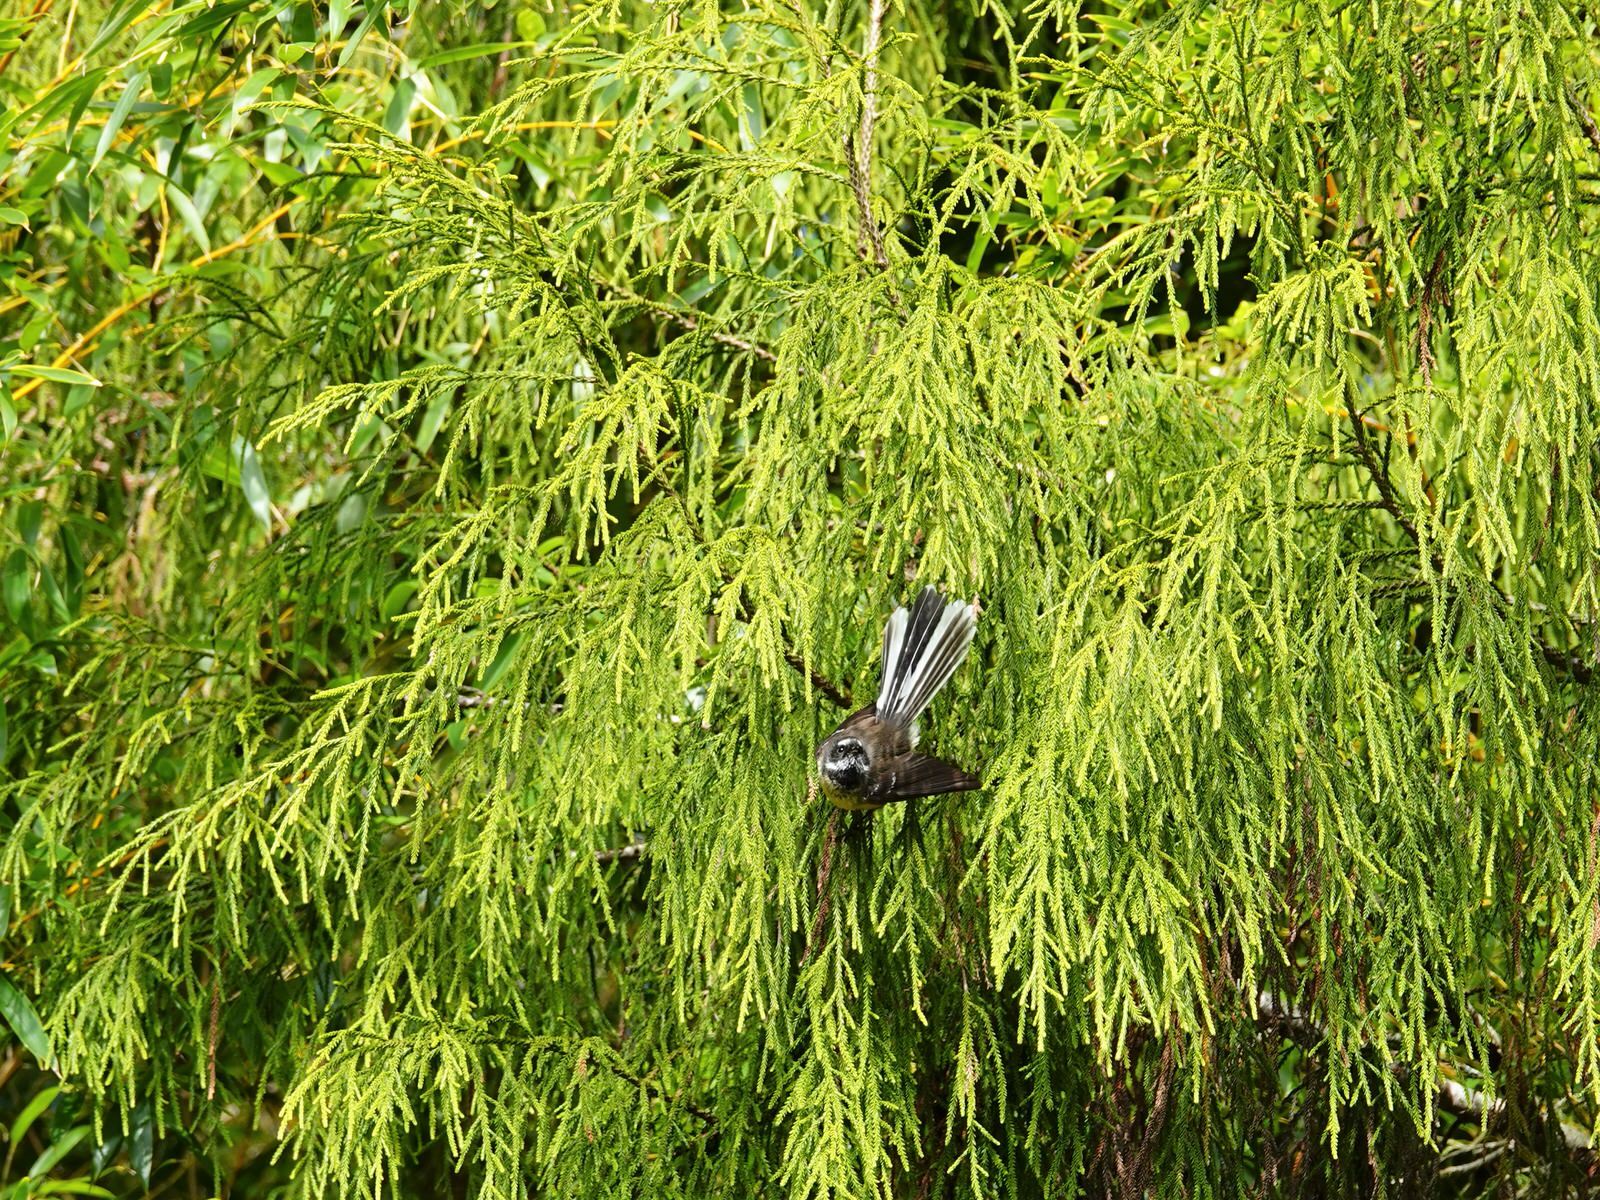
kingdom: Animalia
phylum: Chordata
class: Aves
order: Passeriformes
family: Rhipiduridae
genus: Rhipidura
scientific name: Rhipidura fuliginosa
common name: New zealand fantail
